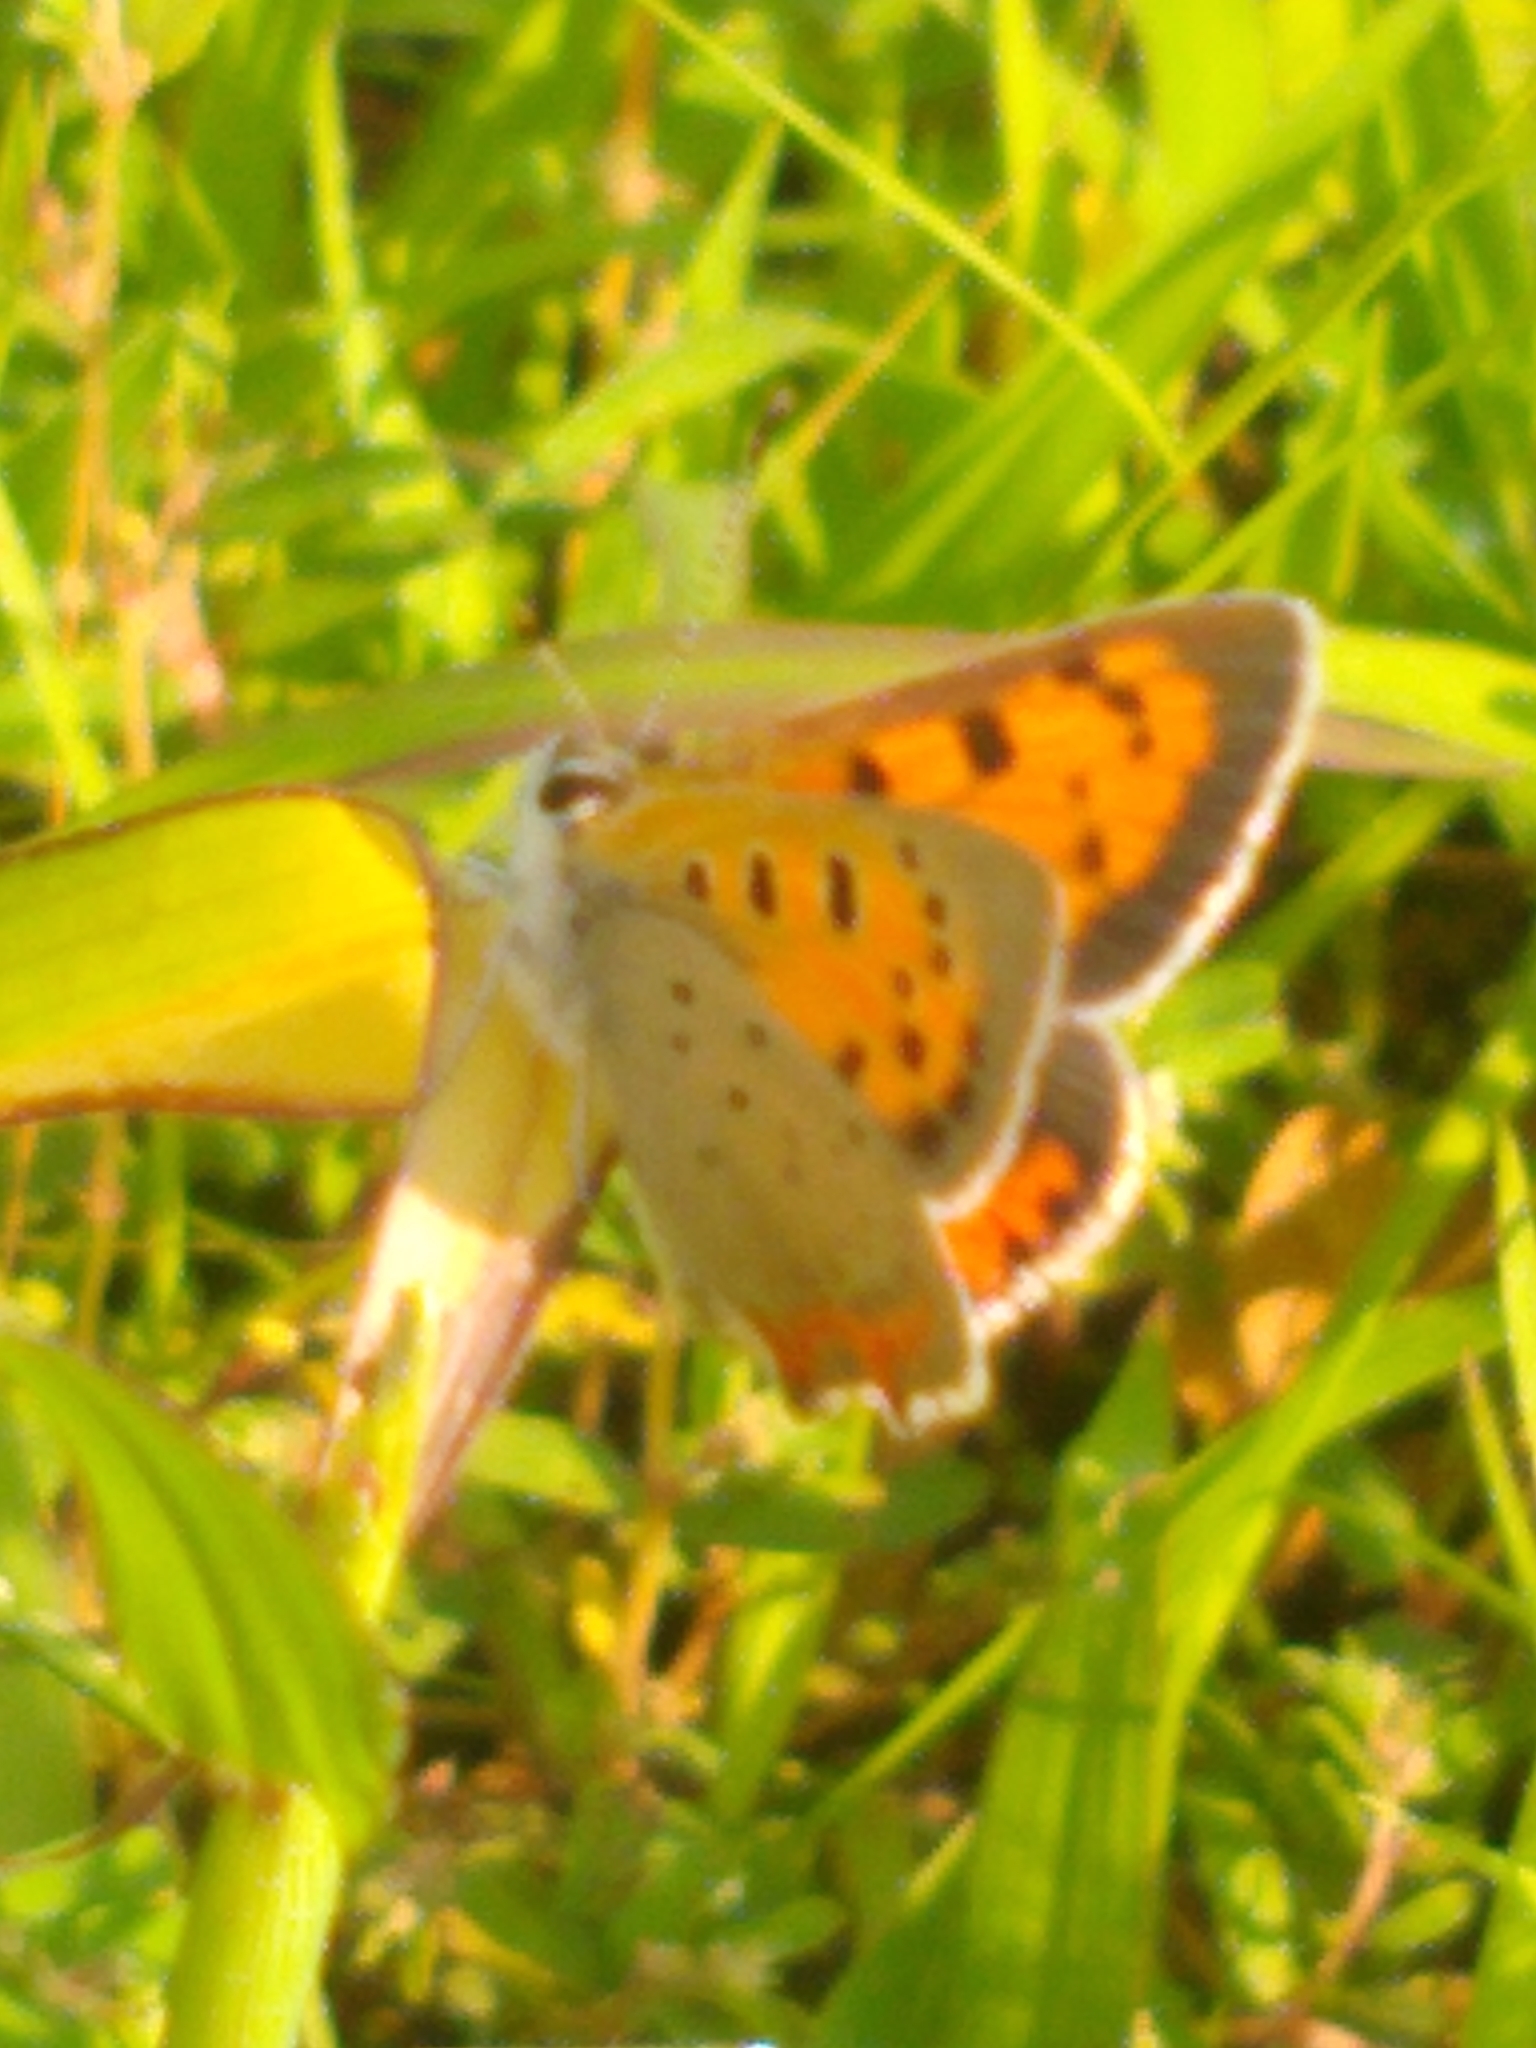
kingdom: Animalia
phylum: Arthropoda
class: Insecta
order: Lepidoptera
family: Lycaenidae
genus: Lycaena
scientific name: Lycaena hypophlaeas
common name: American copper
